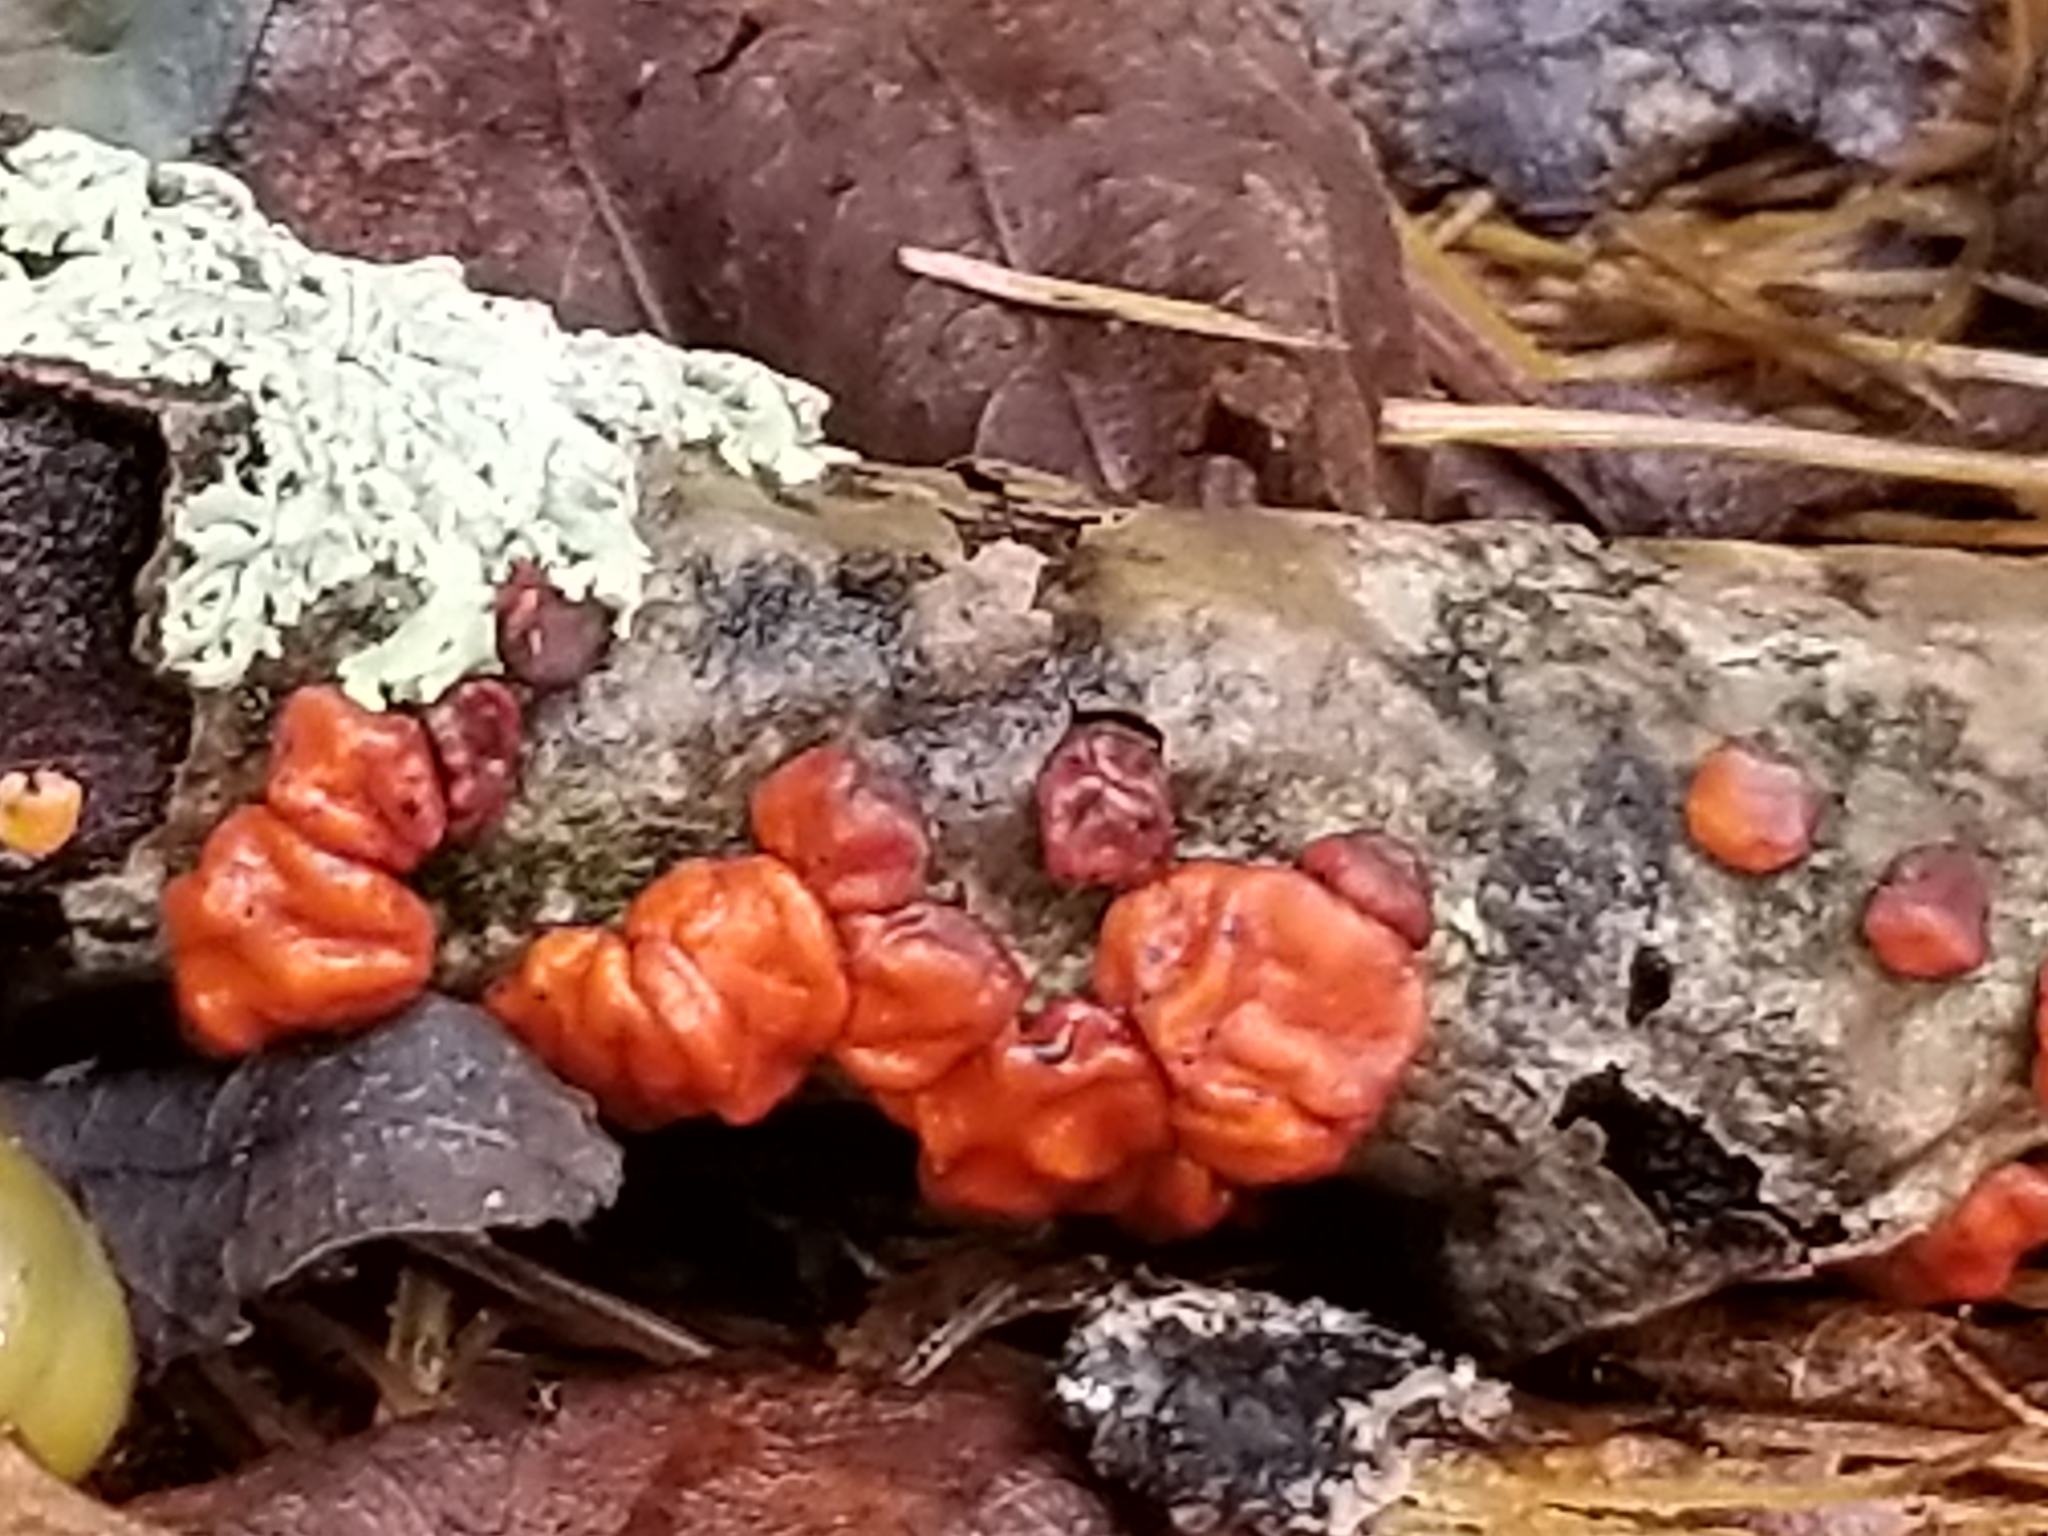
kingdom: Fungi
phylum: Basidiomycota
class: Agaricomycetes
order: Russulales
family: Peniophoraceae
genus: Peniophora
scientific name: Peniophora rufa
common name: Red tree brain fungus
